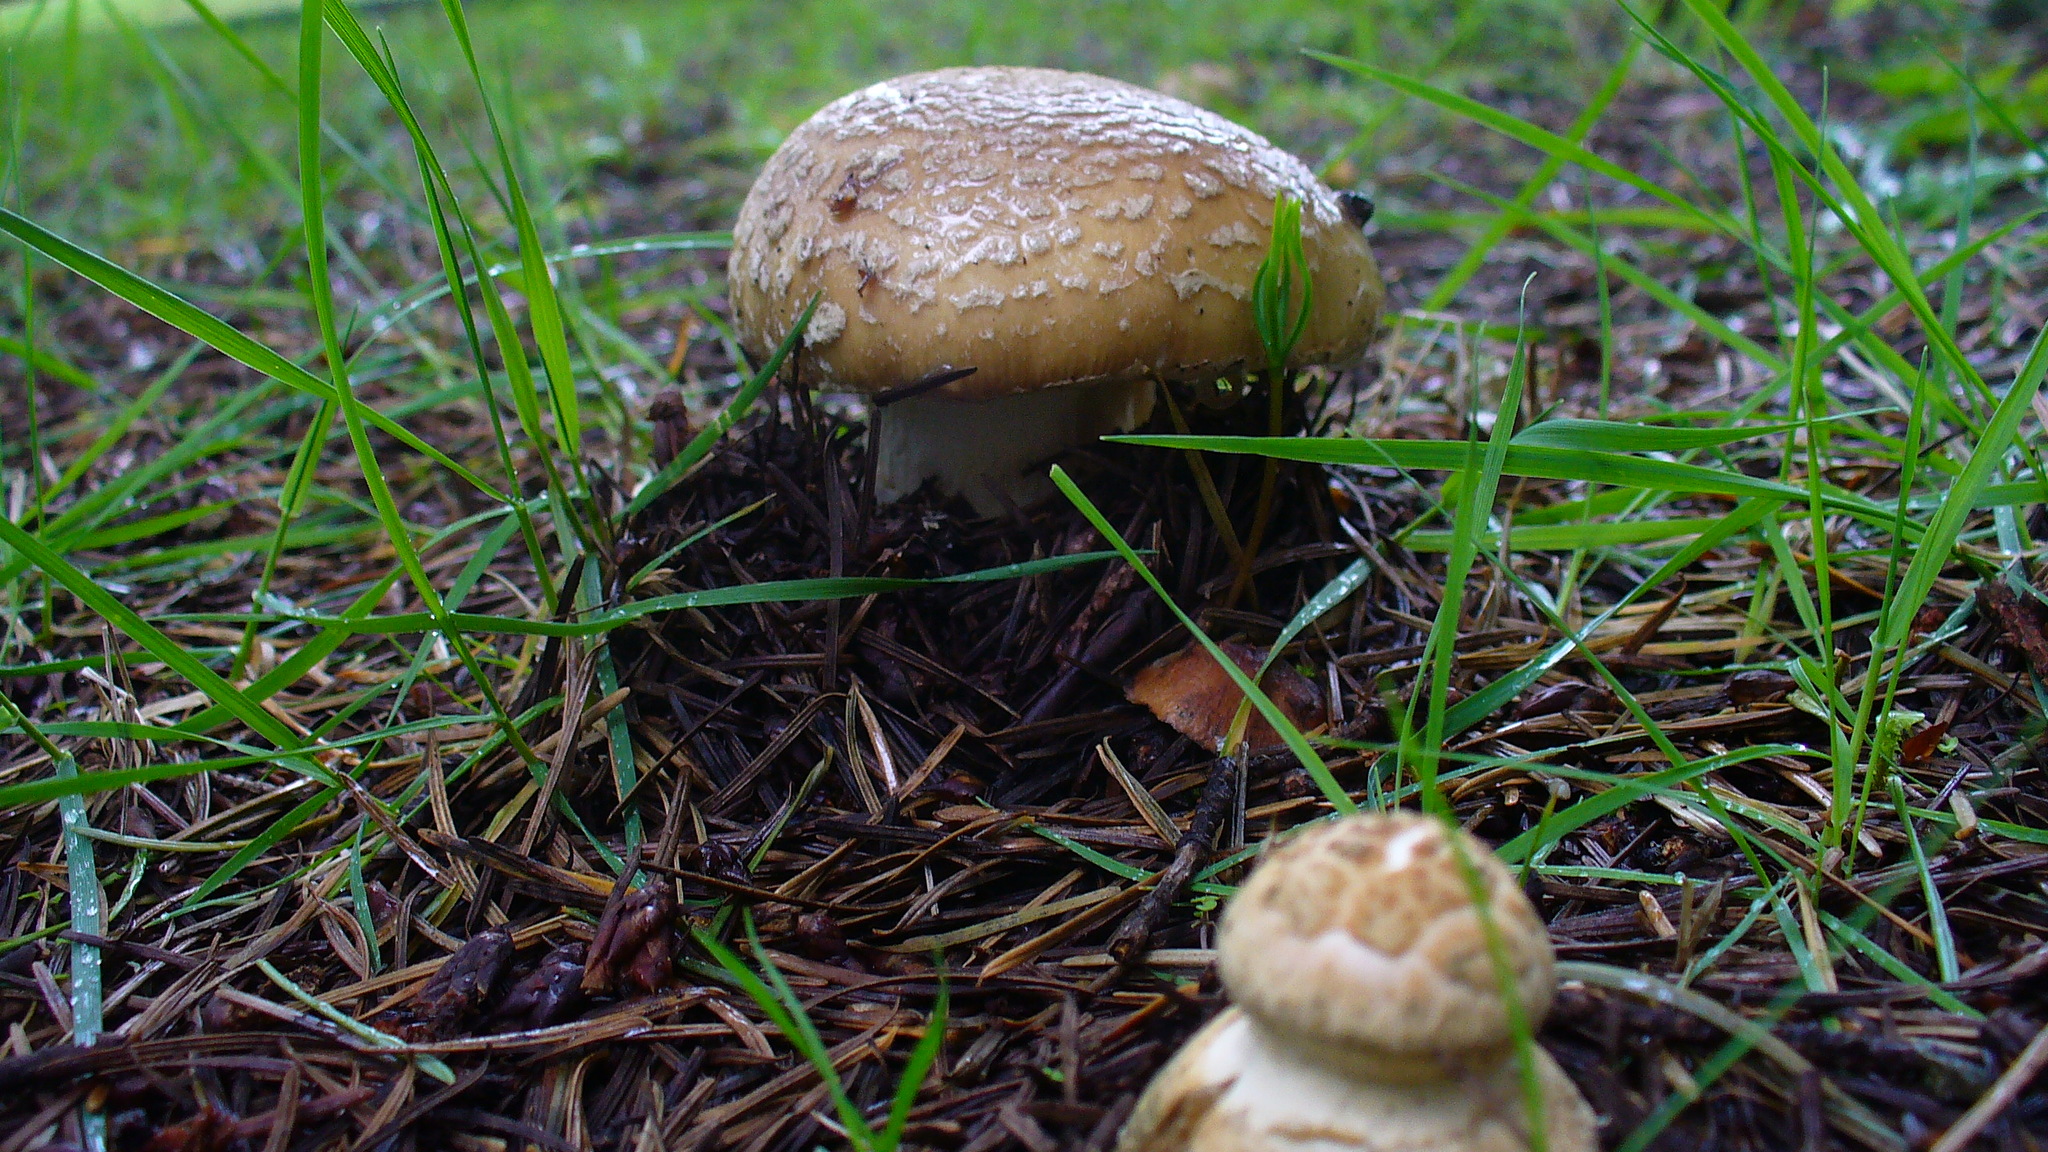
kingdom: Fungi
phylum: Basidiomycota
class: Agaricomycetes
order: Agaricales
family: Amanitaceae
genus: Amanita
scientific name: Amanita pantherina
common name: Panthercap
